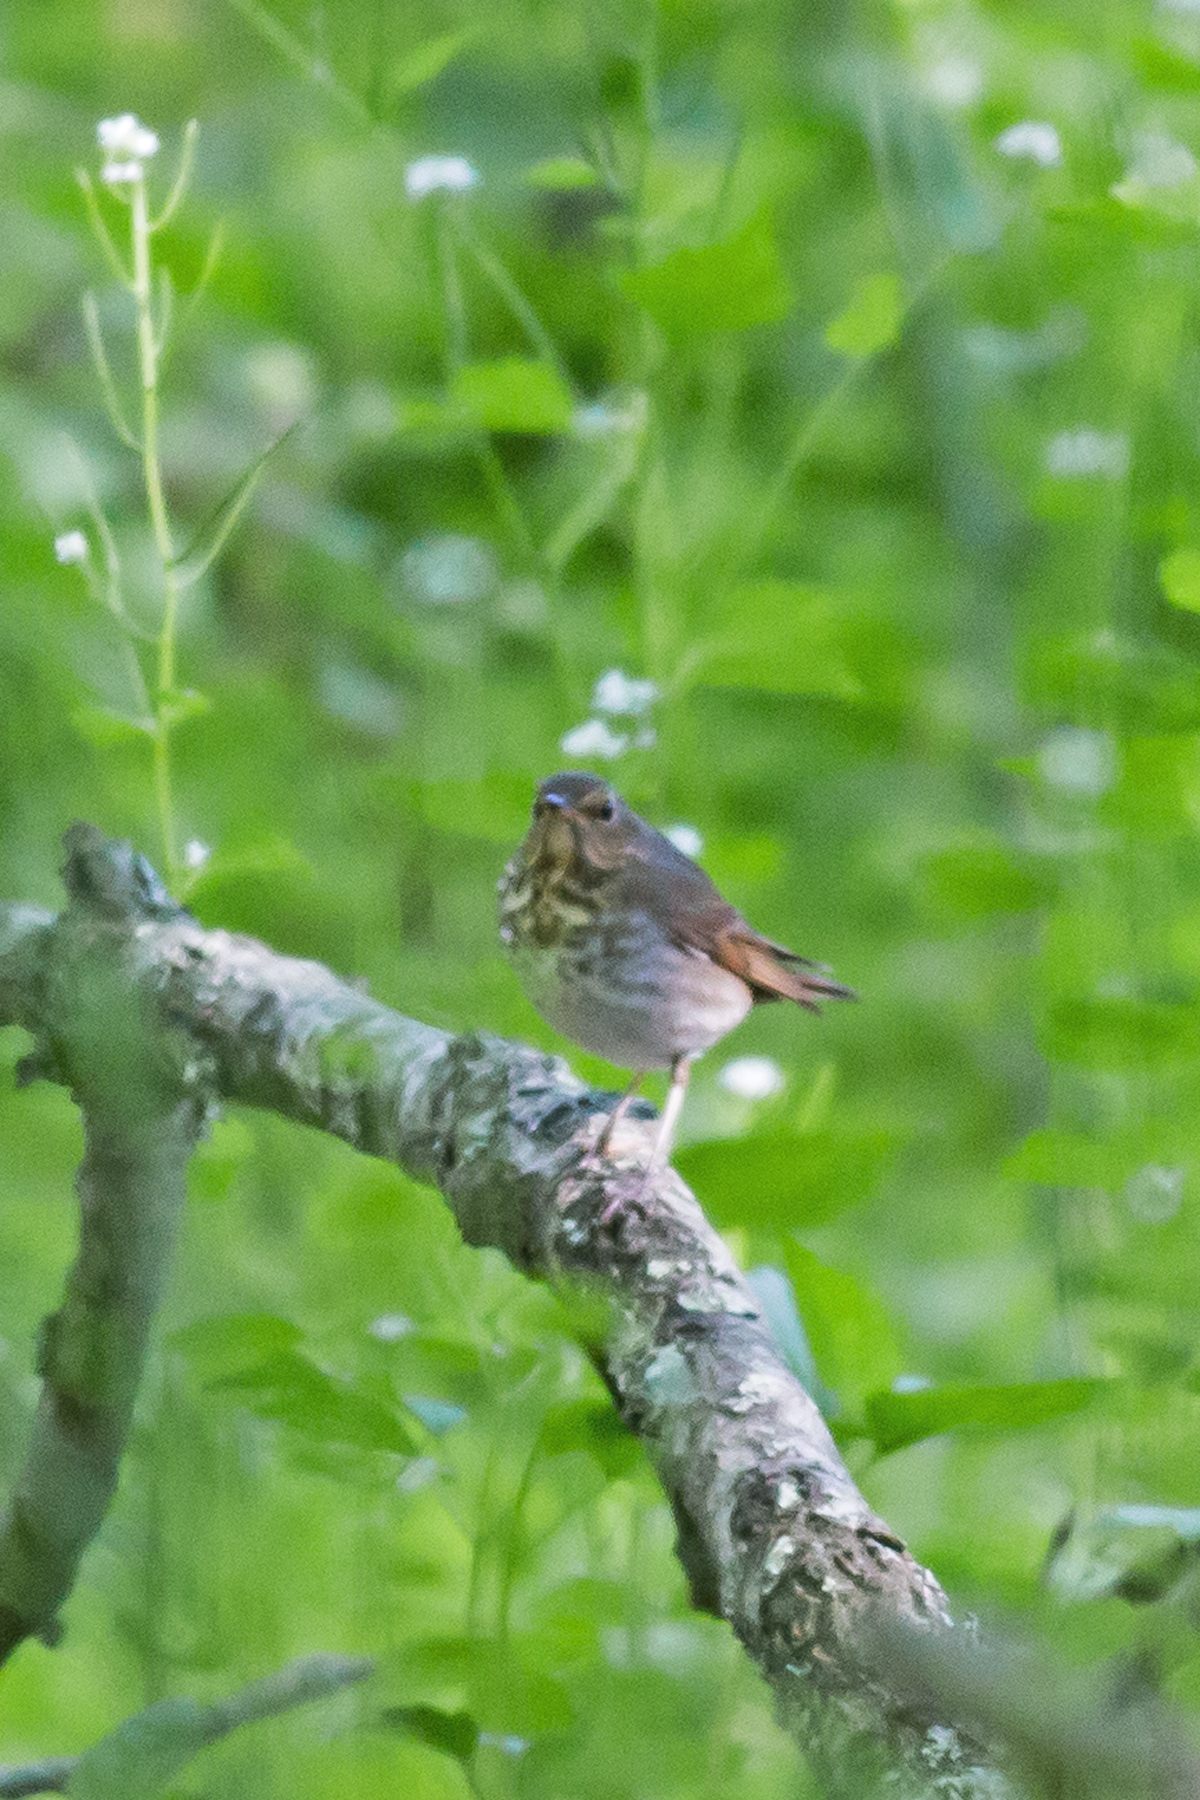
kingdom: Animalia
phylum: Chordata
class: Aves
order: Passeriformes
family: Turdidae
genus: Catharus
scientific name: Catharus guttatus
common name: Hermit thrush
